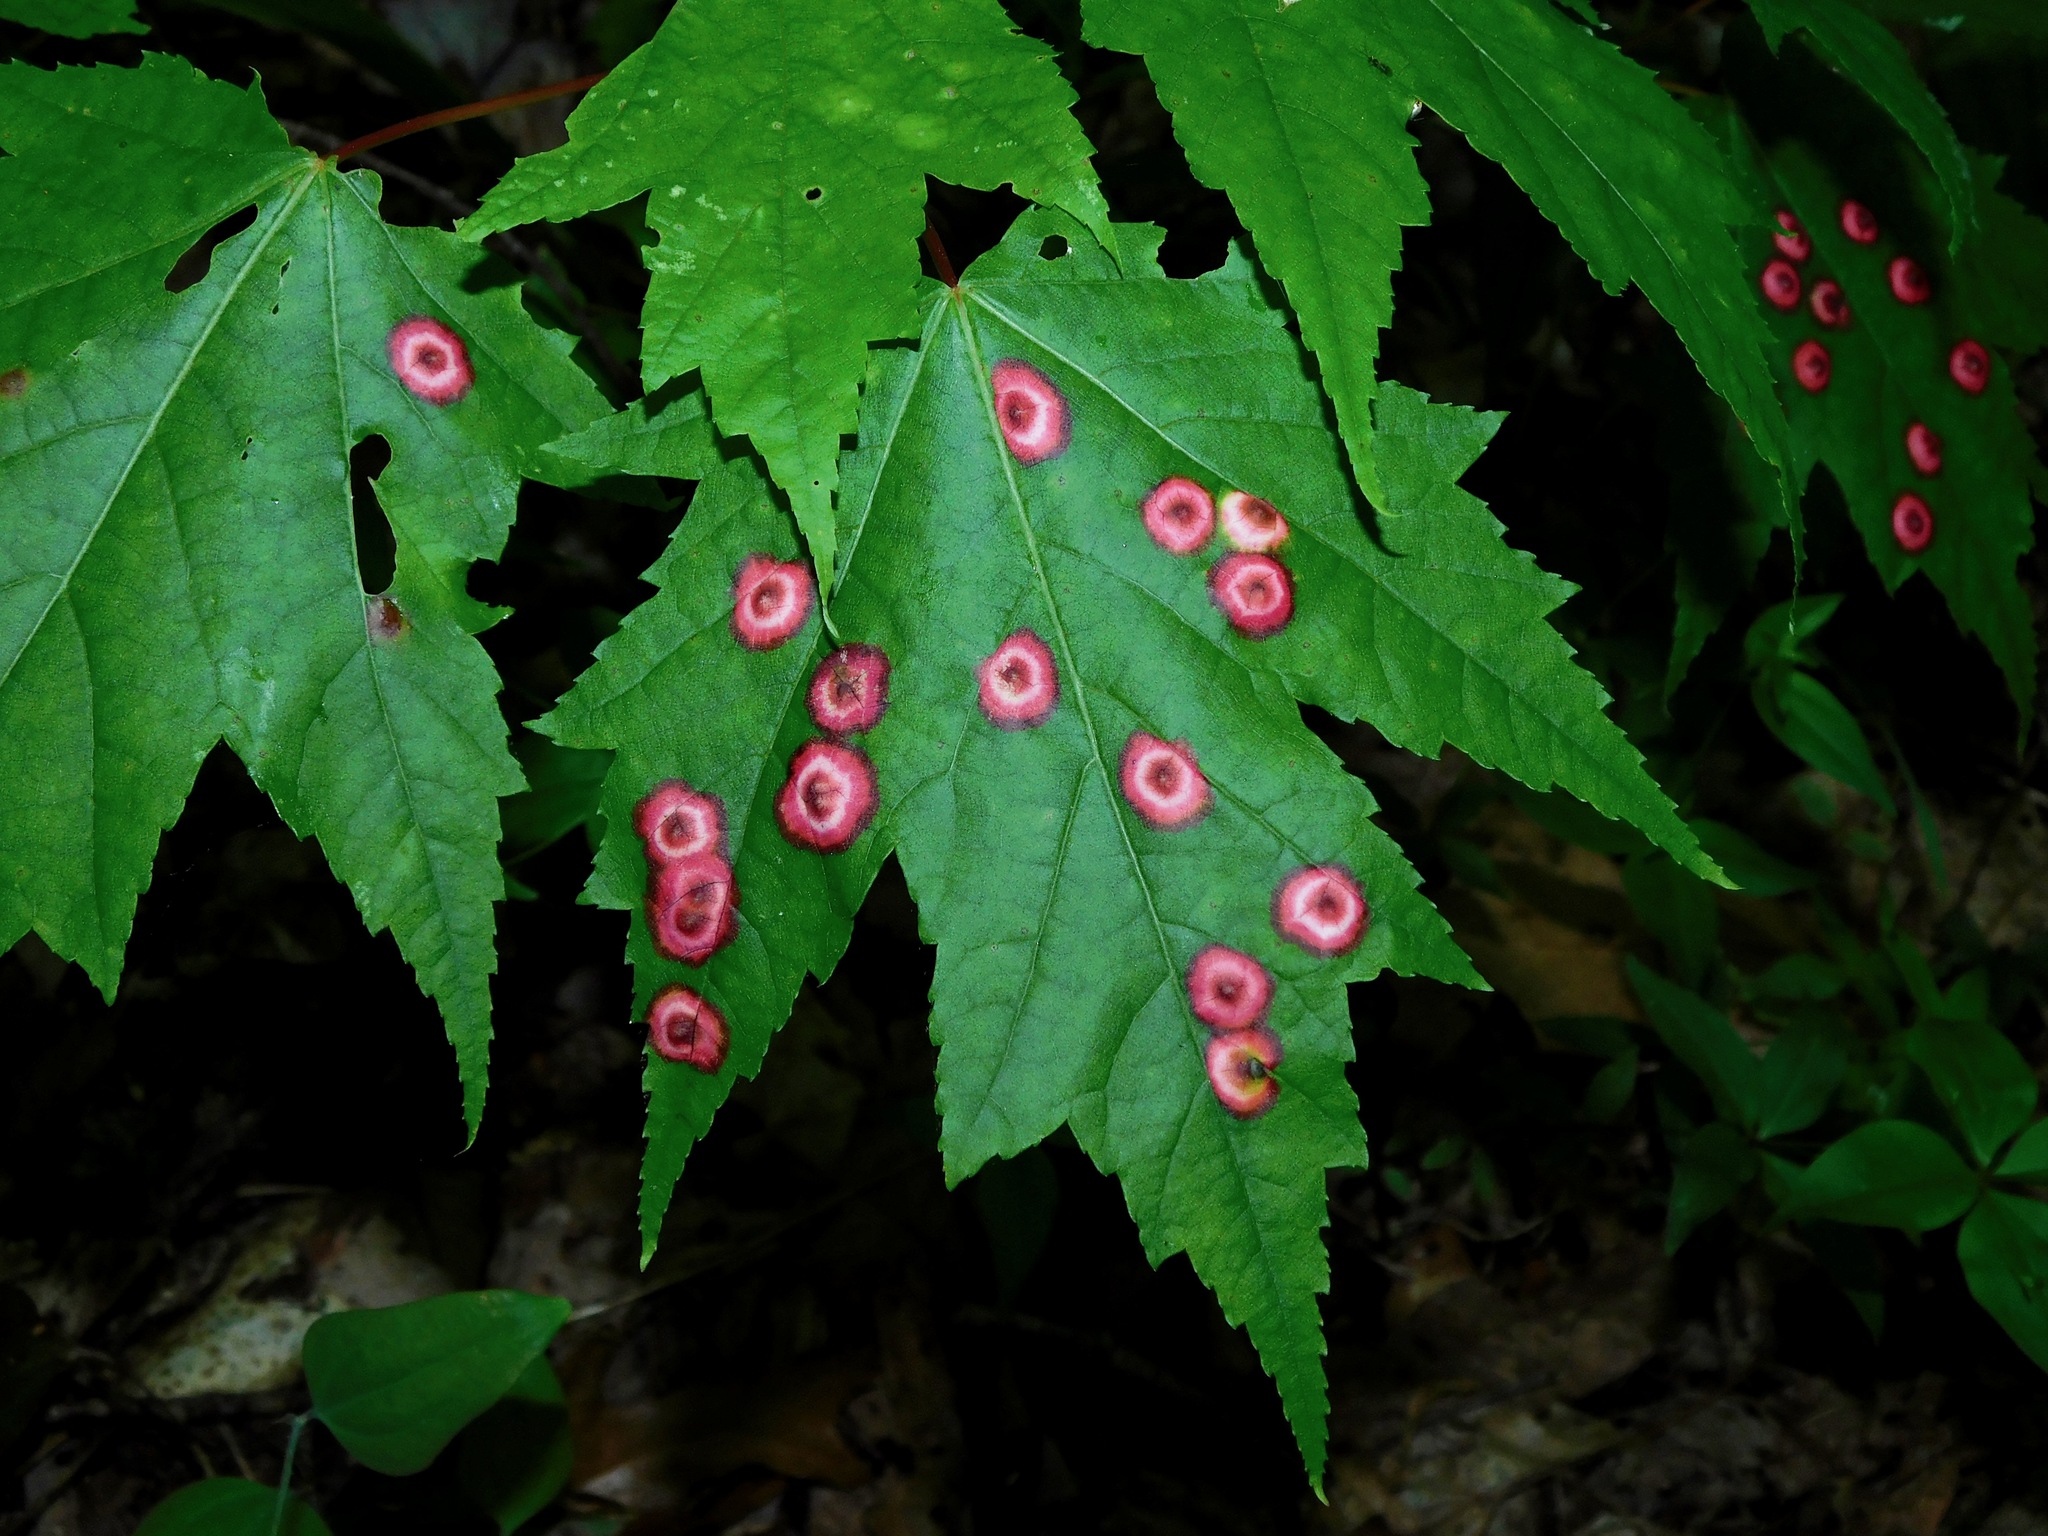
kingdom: Plantae
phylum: Tracheophyta
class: Magnoliopsida
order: Sapindales
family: Sapindaceae
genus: Acer
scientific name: Acer freemanii
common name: Freeman maple
